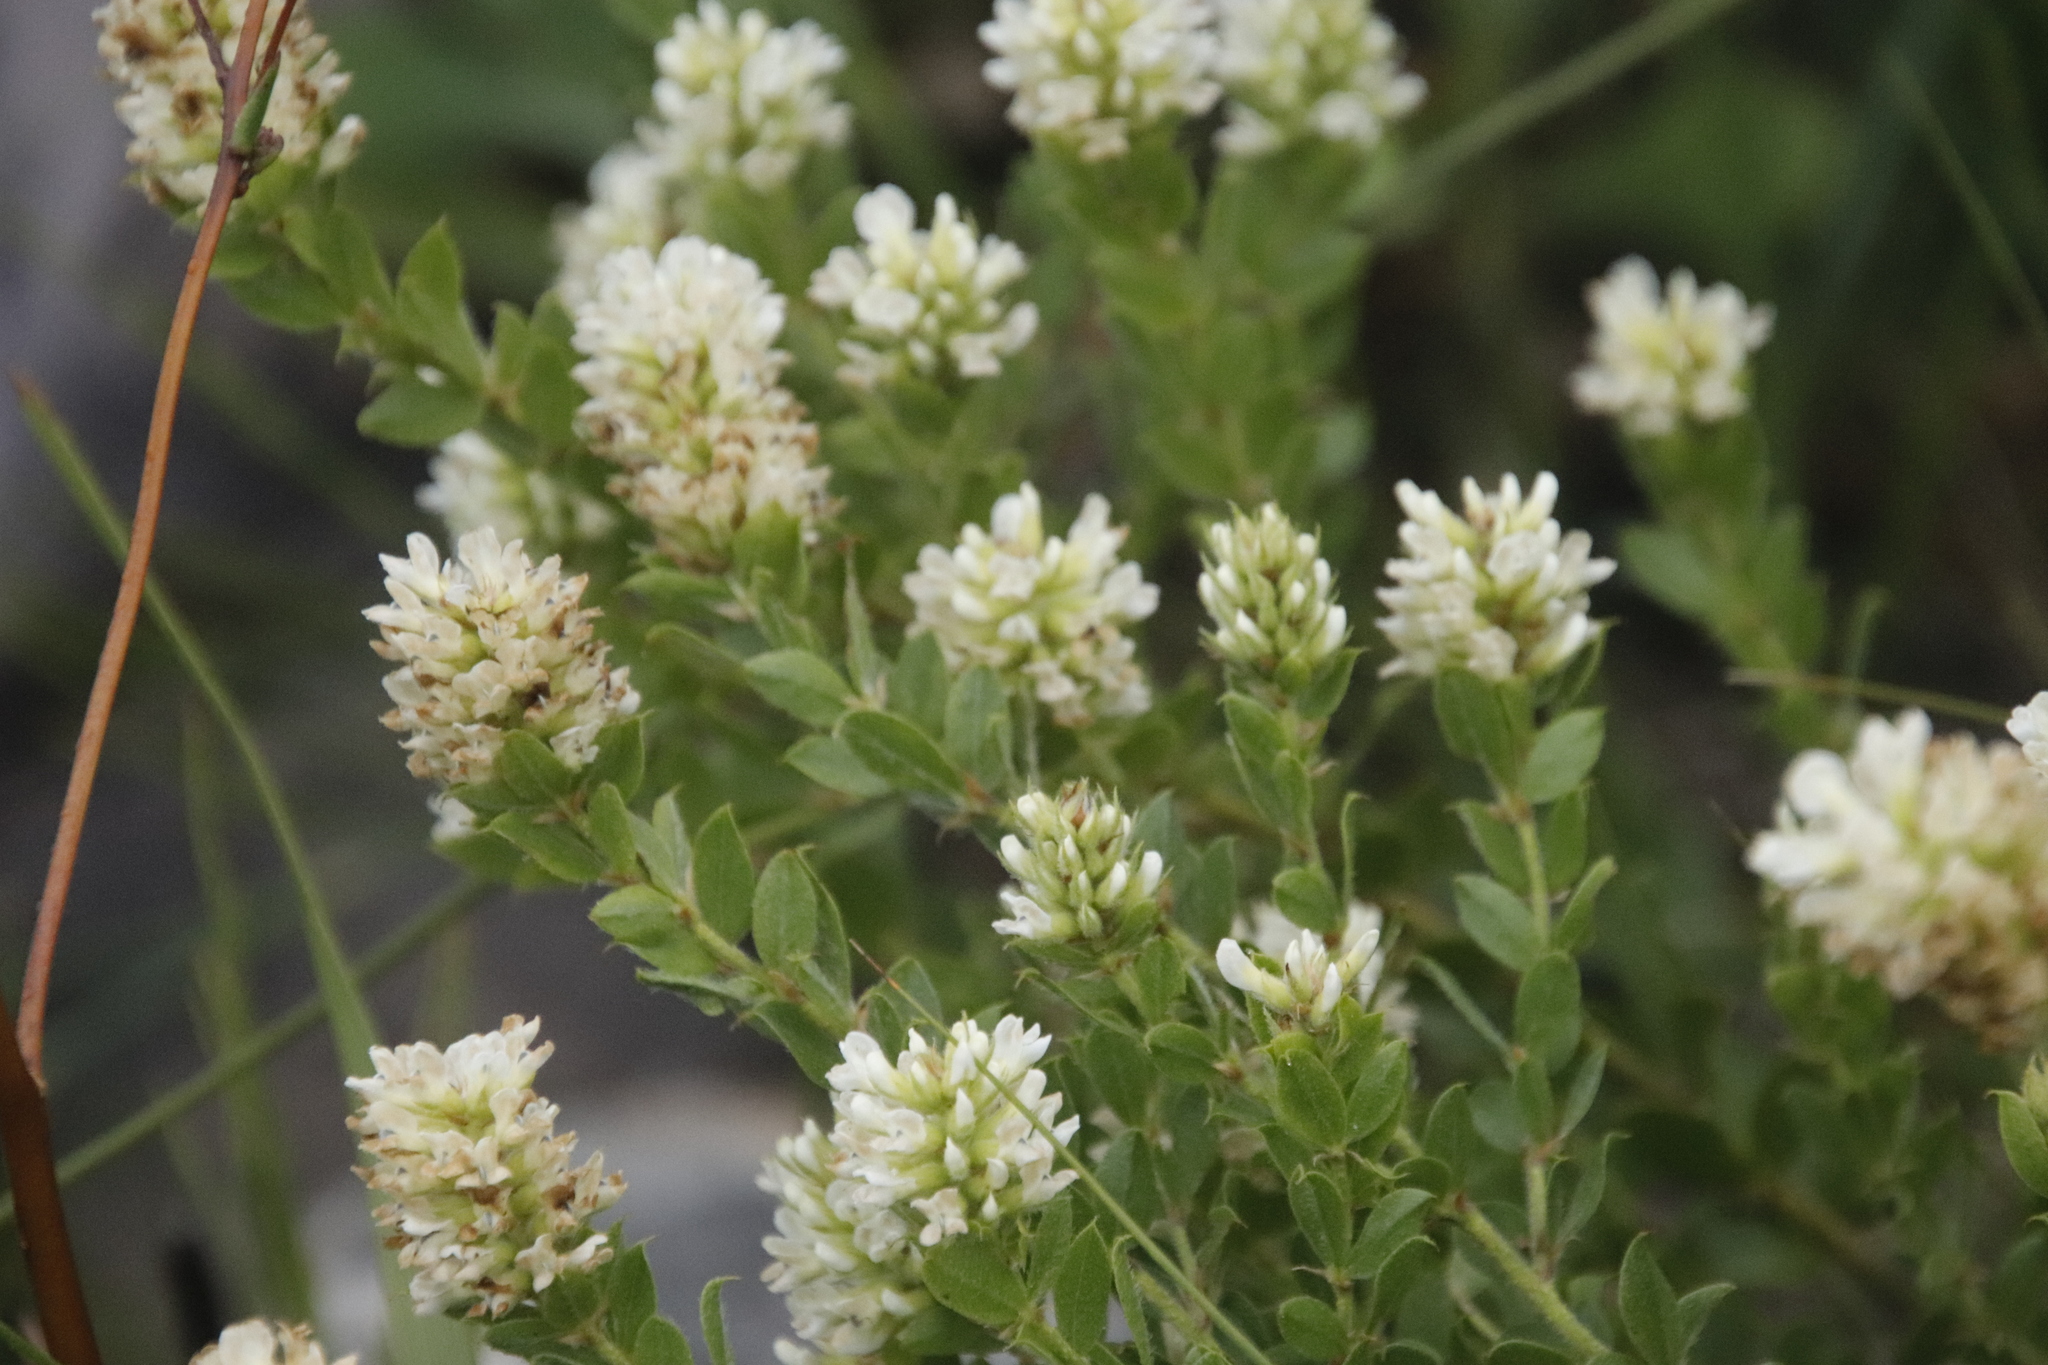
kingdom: Plantae
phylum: Tracheophyta
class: Magnoliopsida
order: Fabales
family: Fabaceae
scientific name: Fabaceae
